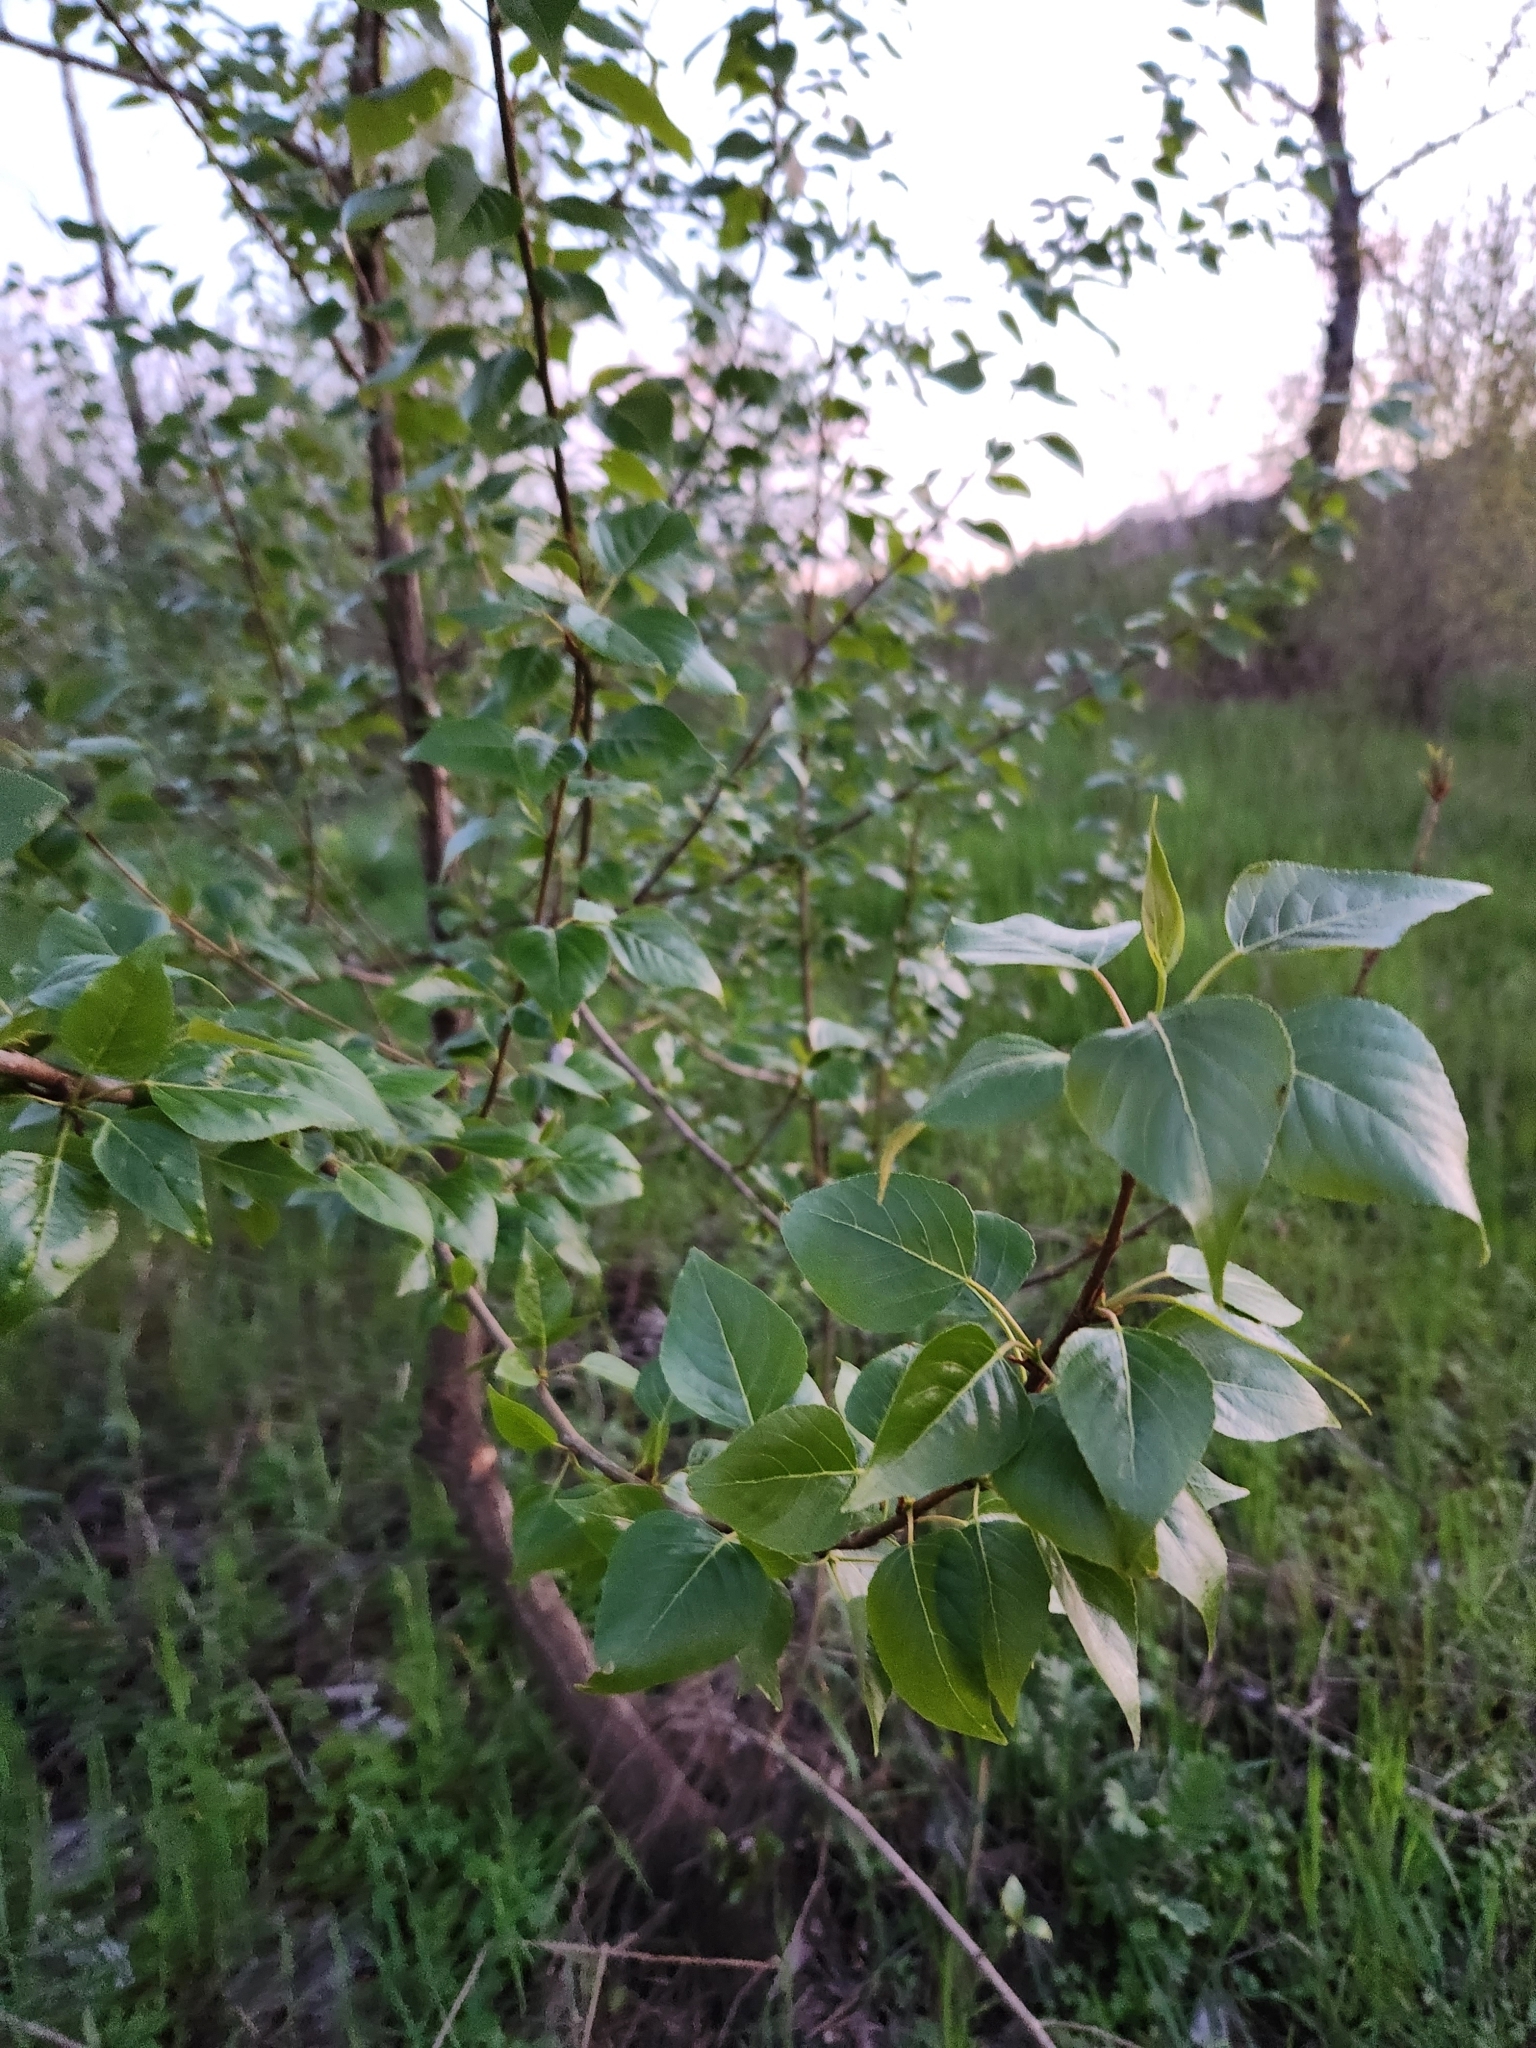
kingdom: Plantae
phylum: Tracheophyta
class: Magnoliopsida
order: Malpighiales
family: Salicaceae
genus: Populus
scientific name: Populus trichocarpa
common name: Black cottonwood
